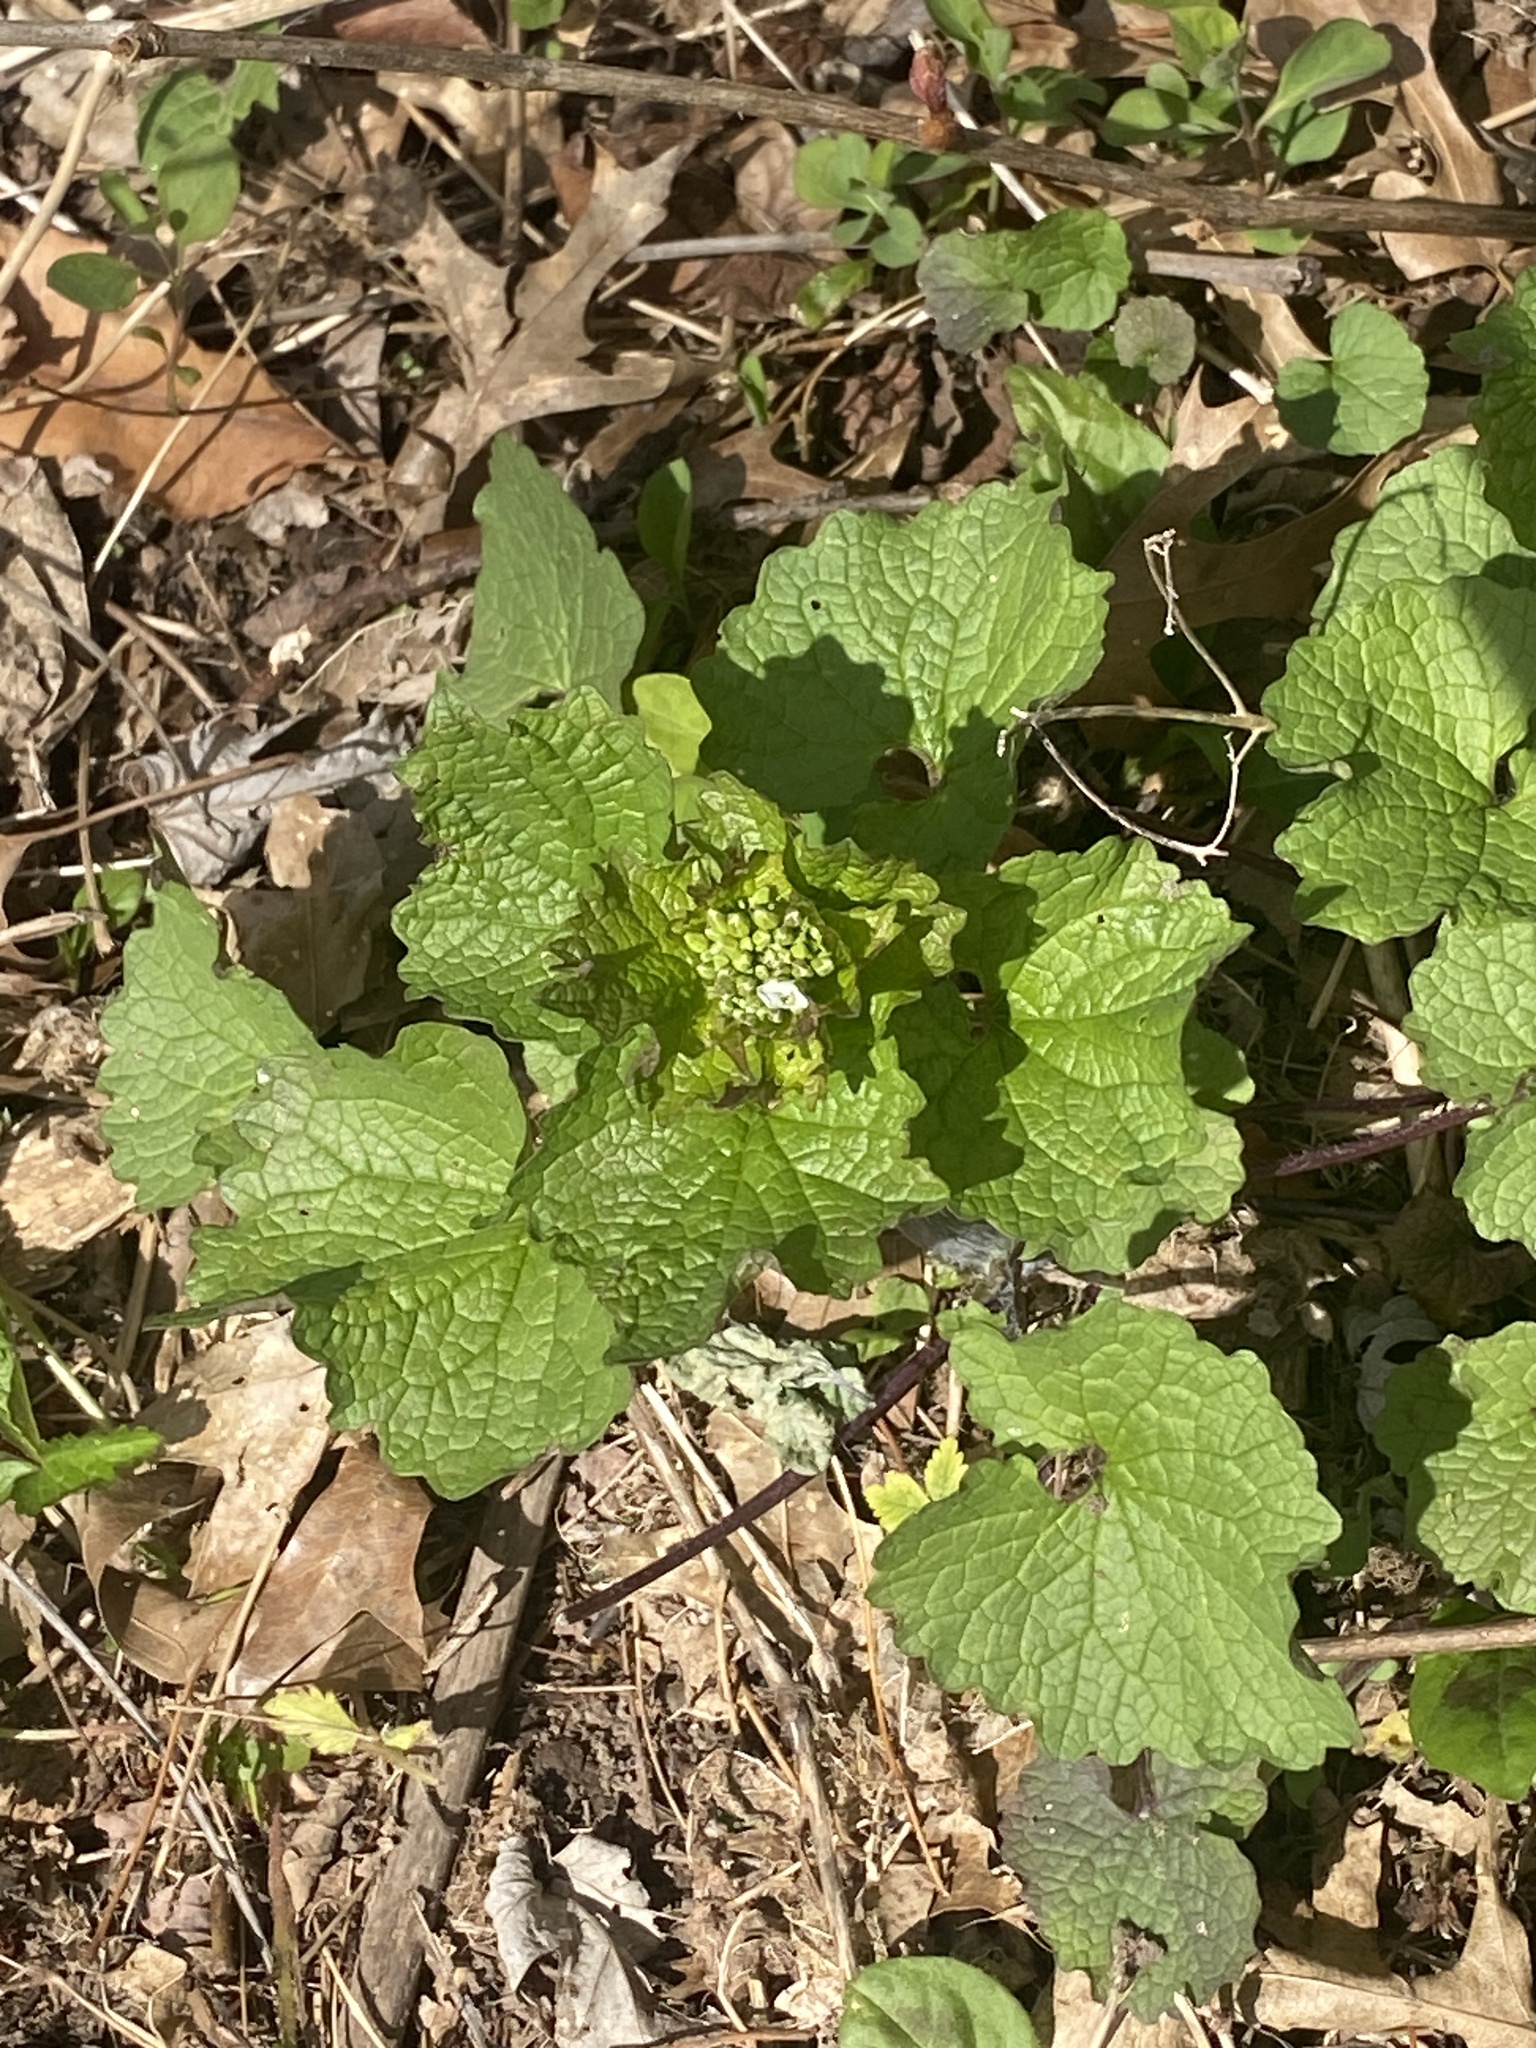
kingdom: Plantae
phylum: Tracheophyta
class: Magnoliopsida
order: Brassicales
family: Brassicaceae
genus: Alliaria
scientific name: Alliaria petiolata
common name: Garlic mustard
